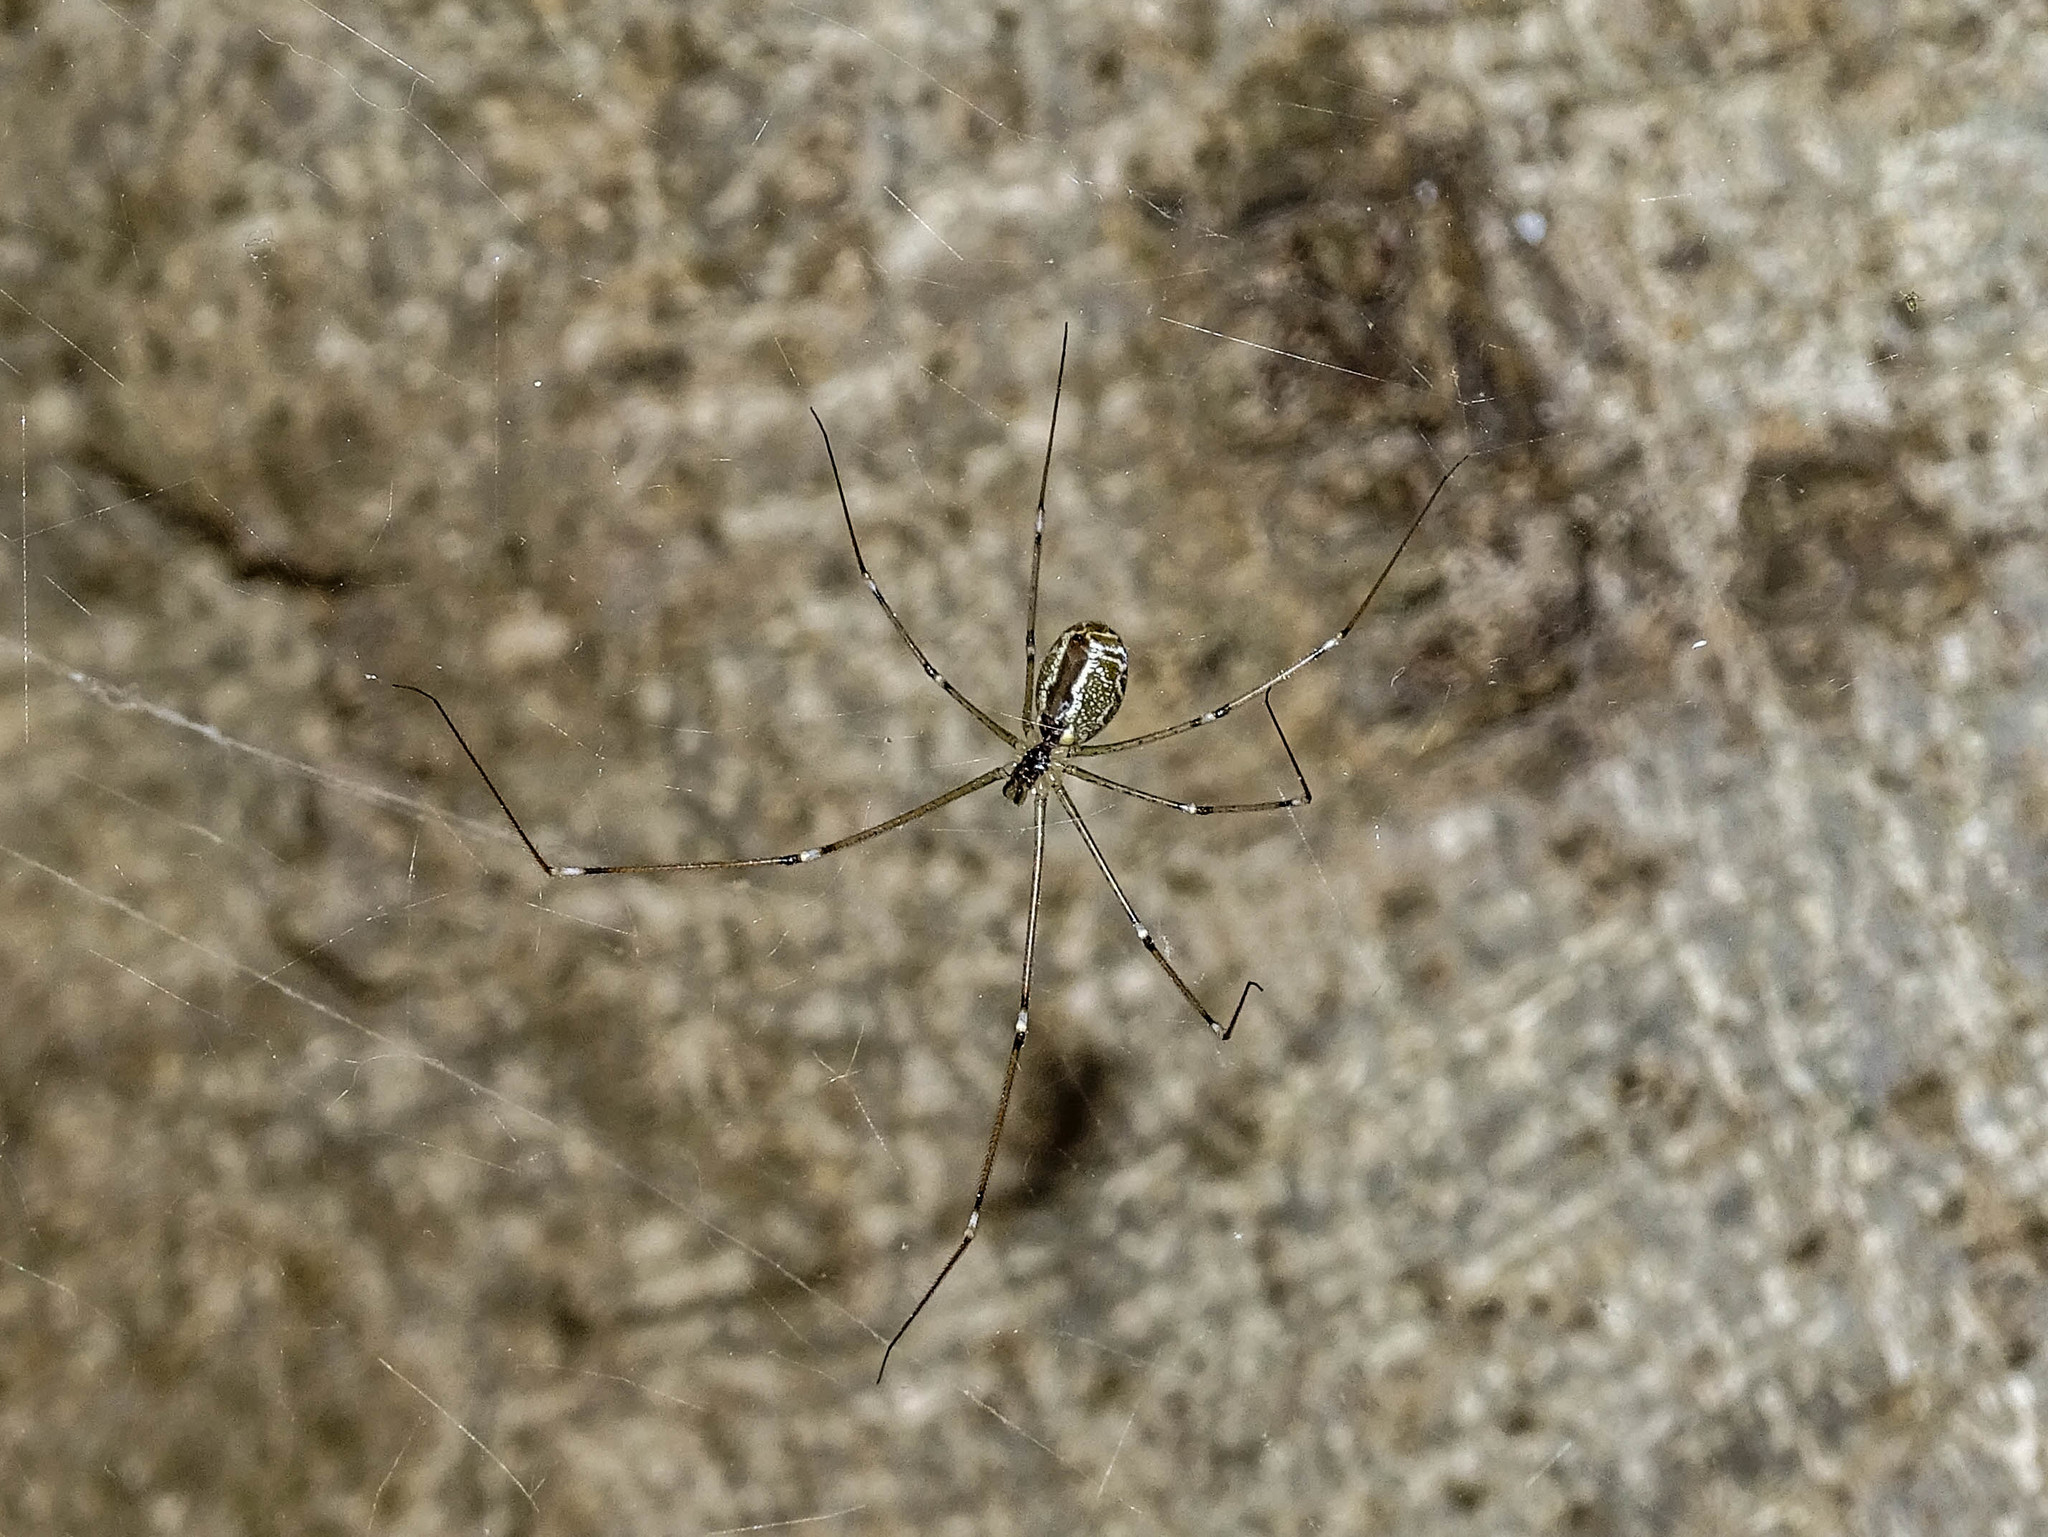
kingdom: Animalia
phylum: Arthropoda
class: Arachnida
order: Araneae
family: Pholcidae
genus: Holocnemus
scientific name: Holocnemus pluchei
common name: Marbled cellar spider
